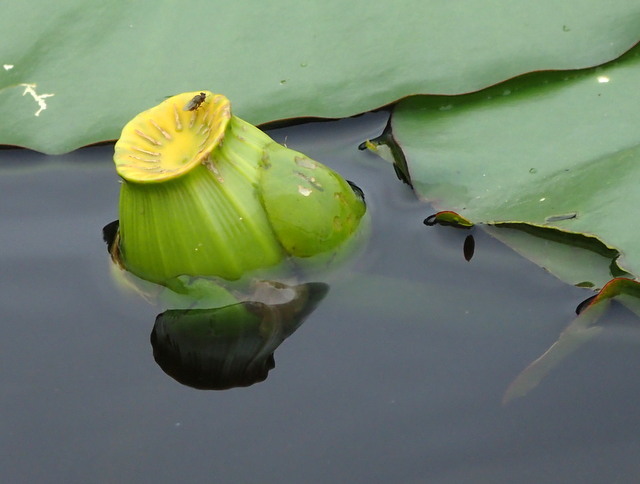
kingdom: Plantae
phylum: Tracheophyta
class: Magnoliopsida
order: Nymphaeales
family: Nymphaeaceae
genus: Nuphar
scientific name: Nuphar advena
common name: Spatter-dock
